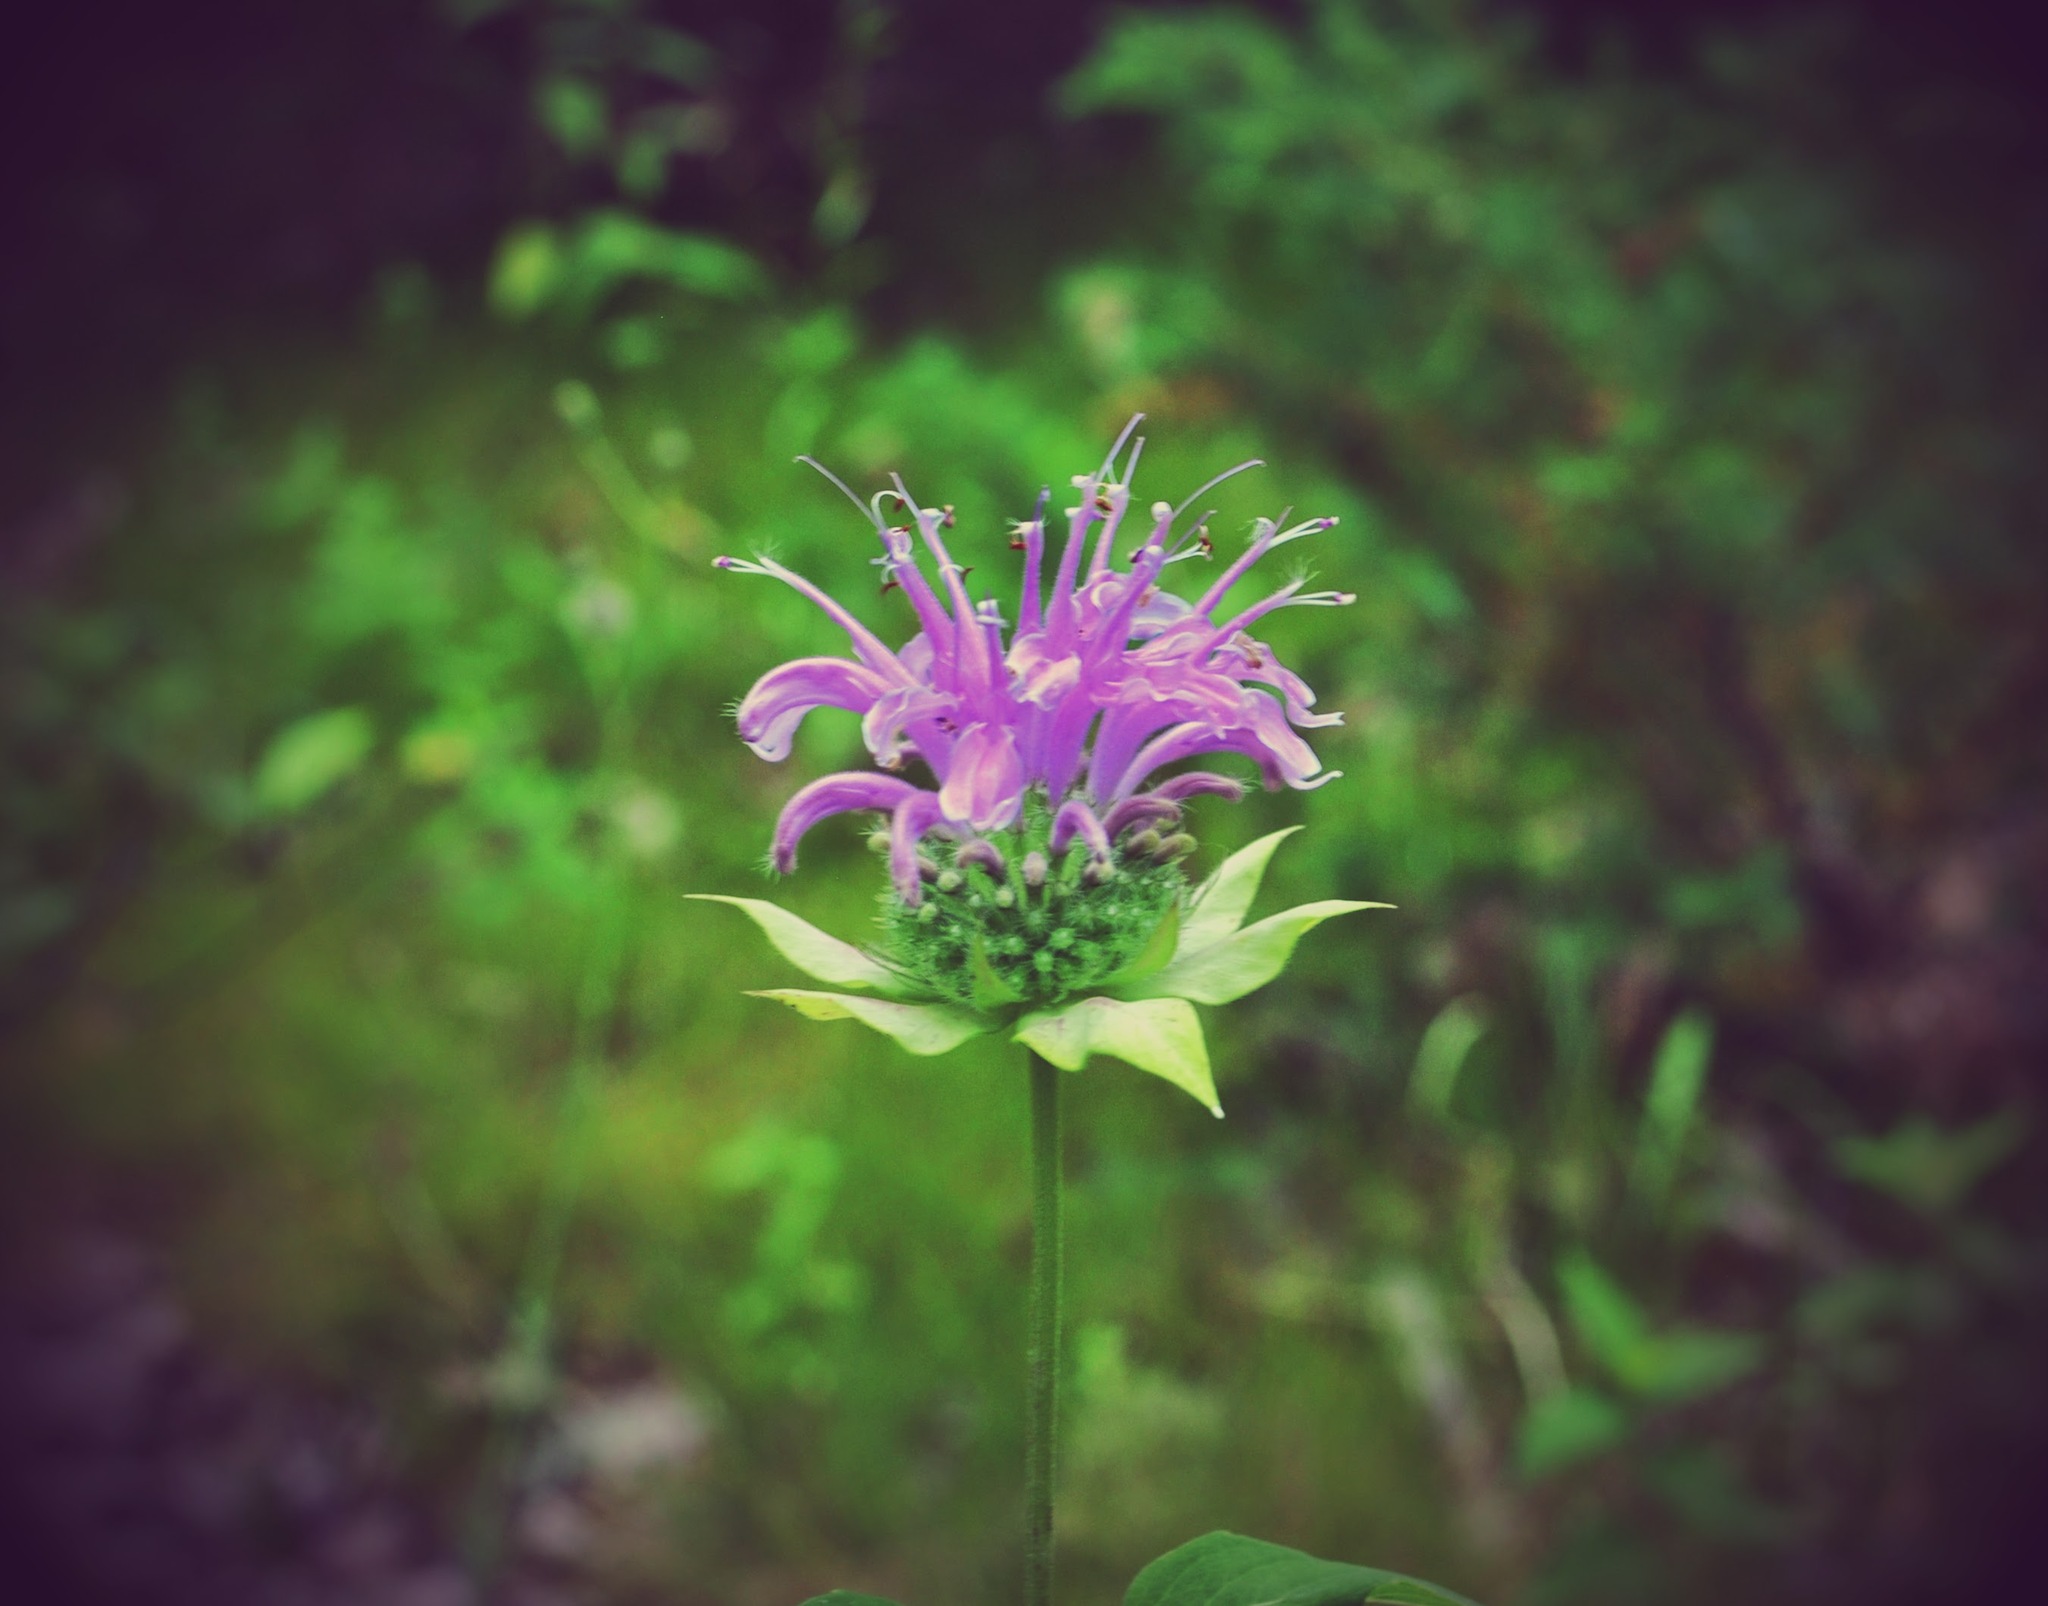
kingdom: Plantae
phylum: Tracheophyta
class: Magnoliopsida
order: Lamiales
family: Lamiaceae
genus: Monarda
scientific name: Monarda fistulosa
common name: Purple beebalm
